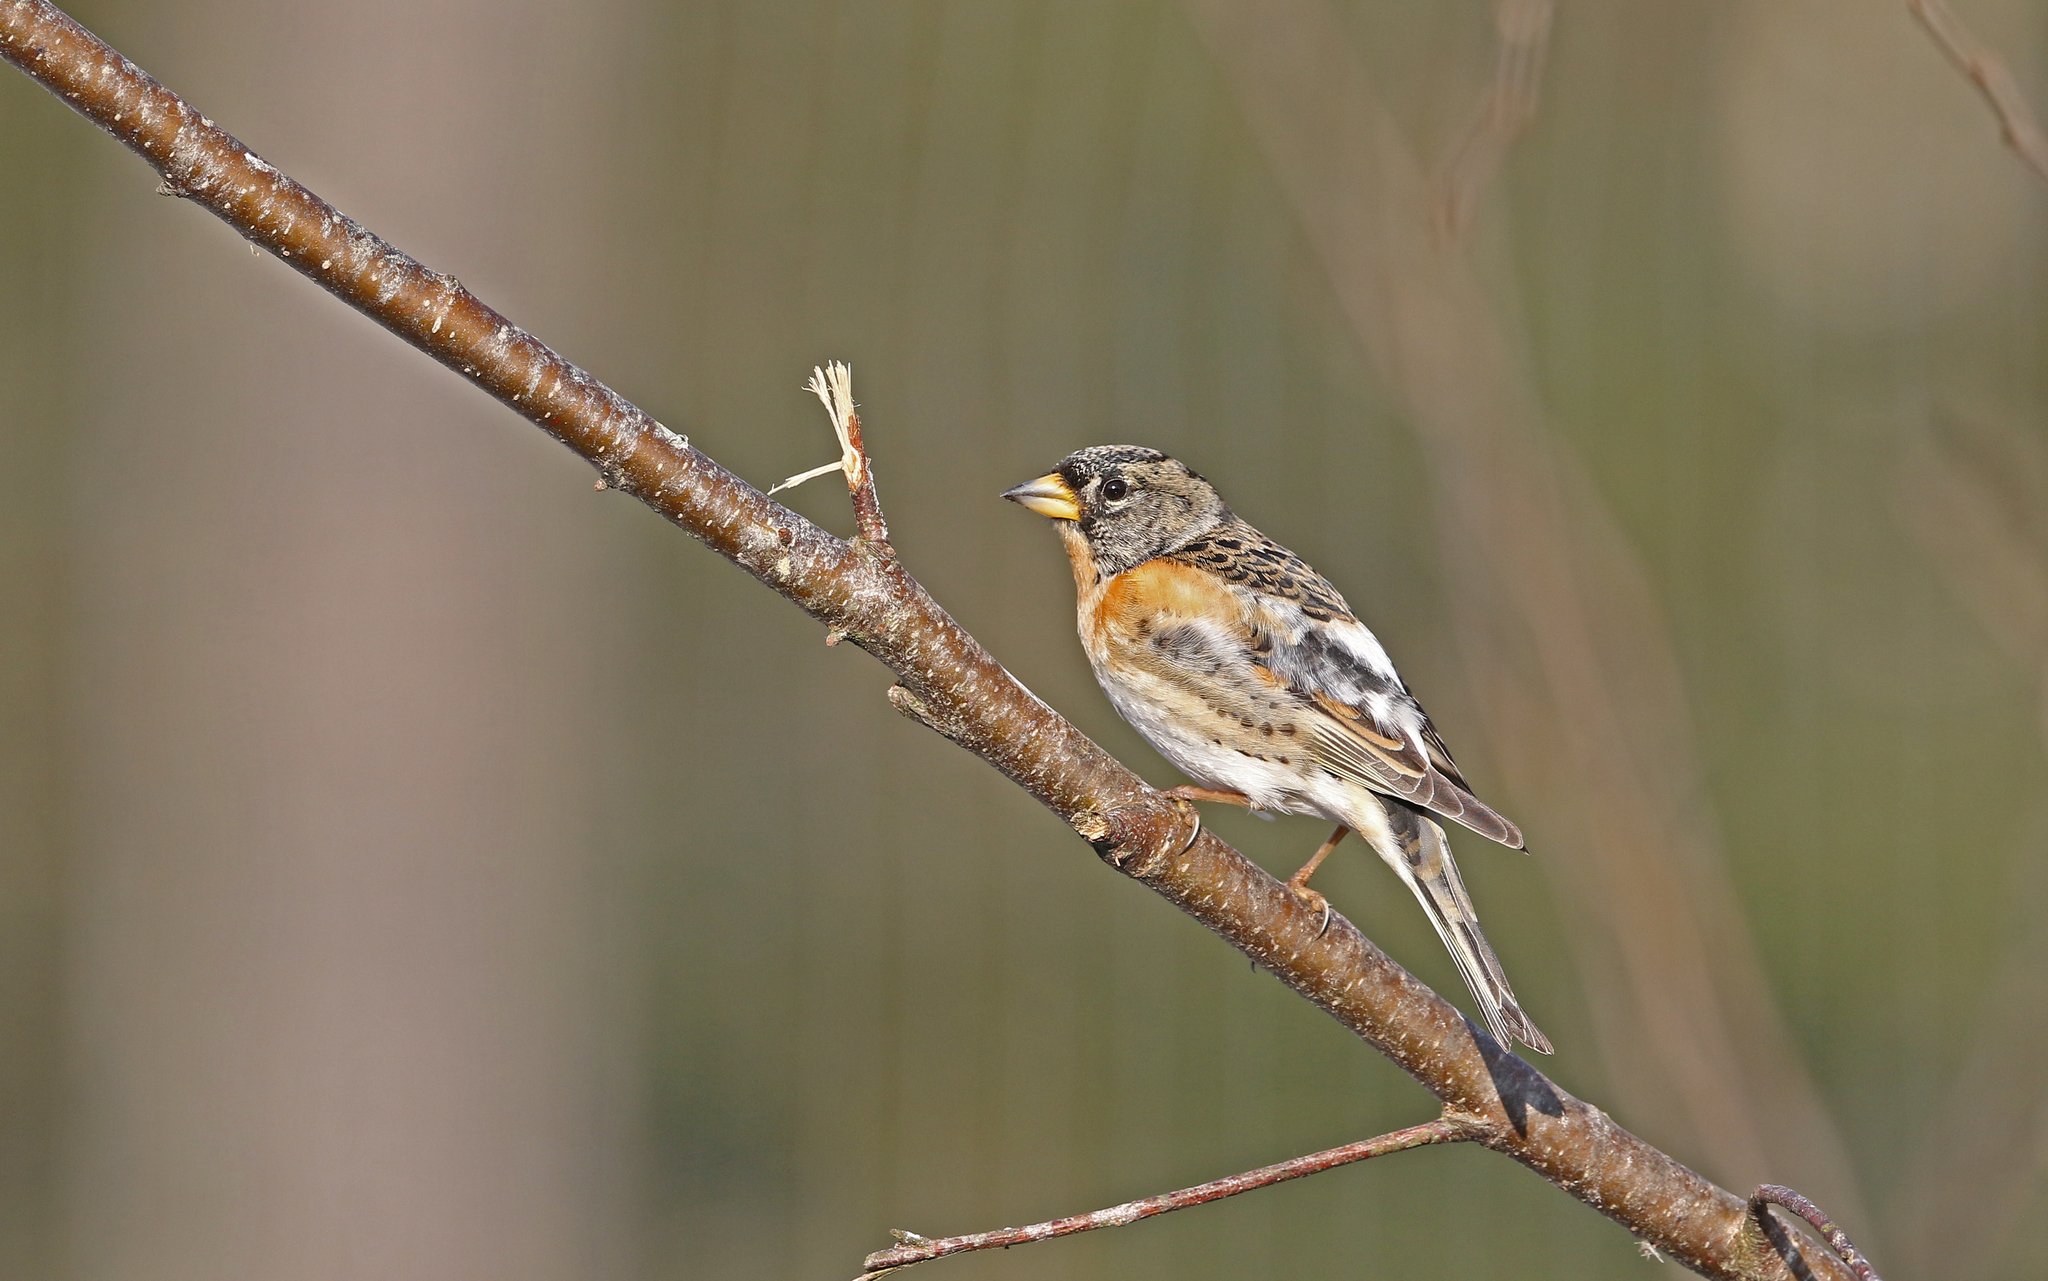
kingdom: Animalia
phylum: Chordata
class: Aves
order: Passeriformes
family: Fringillidae
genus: Fringilla
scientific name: Fringilla montifringilla
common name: Brambling
